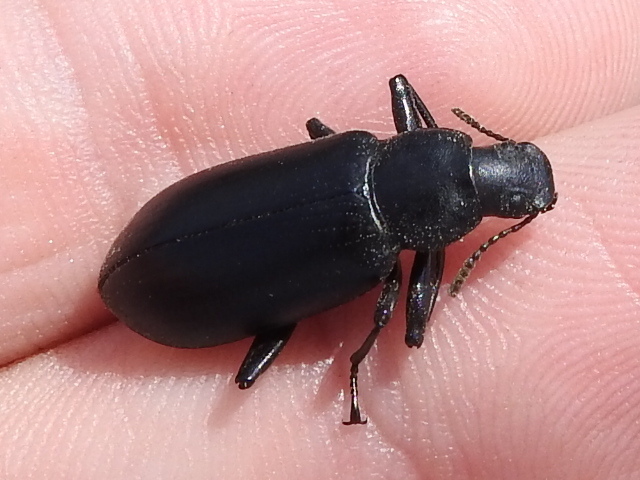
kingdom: Animalia
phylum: Arthropoda
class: Insecta
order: Coleoptera
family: Tenebrionidae
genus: Alobates
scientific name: Alobates barbatus
